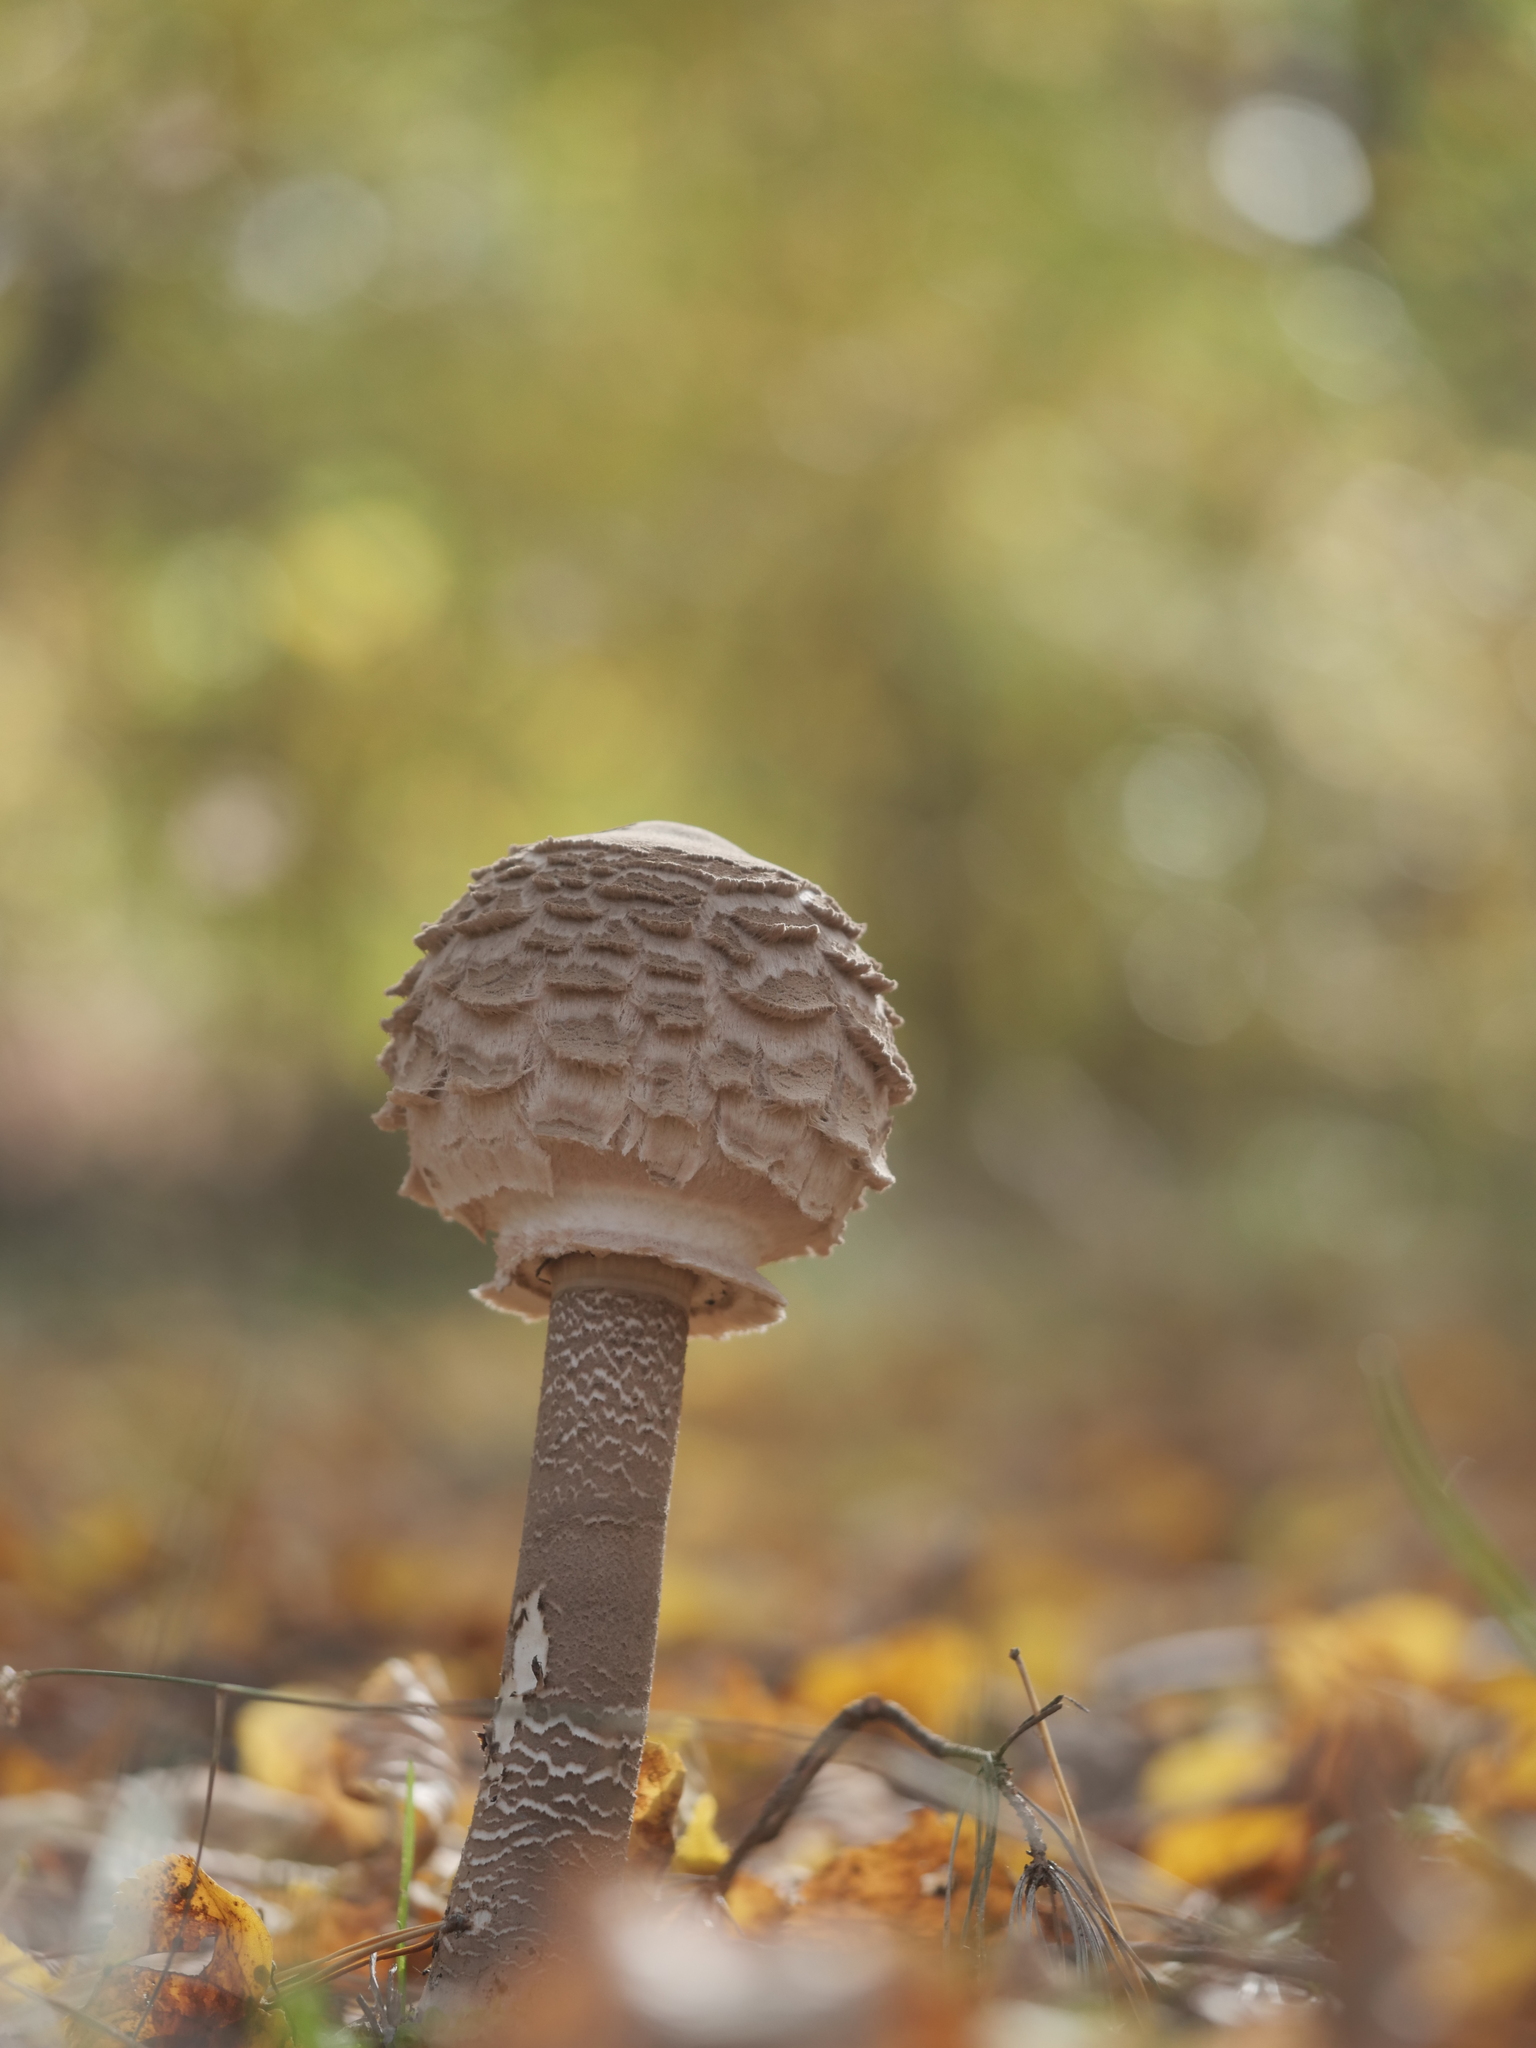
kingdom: Fungi
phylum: Basidiomycota
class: Agaricomycetes
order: Agaricales
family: Agaricaceae
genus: Macrolepiota
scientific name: Macrolepiota procera
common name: Parasol
